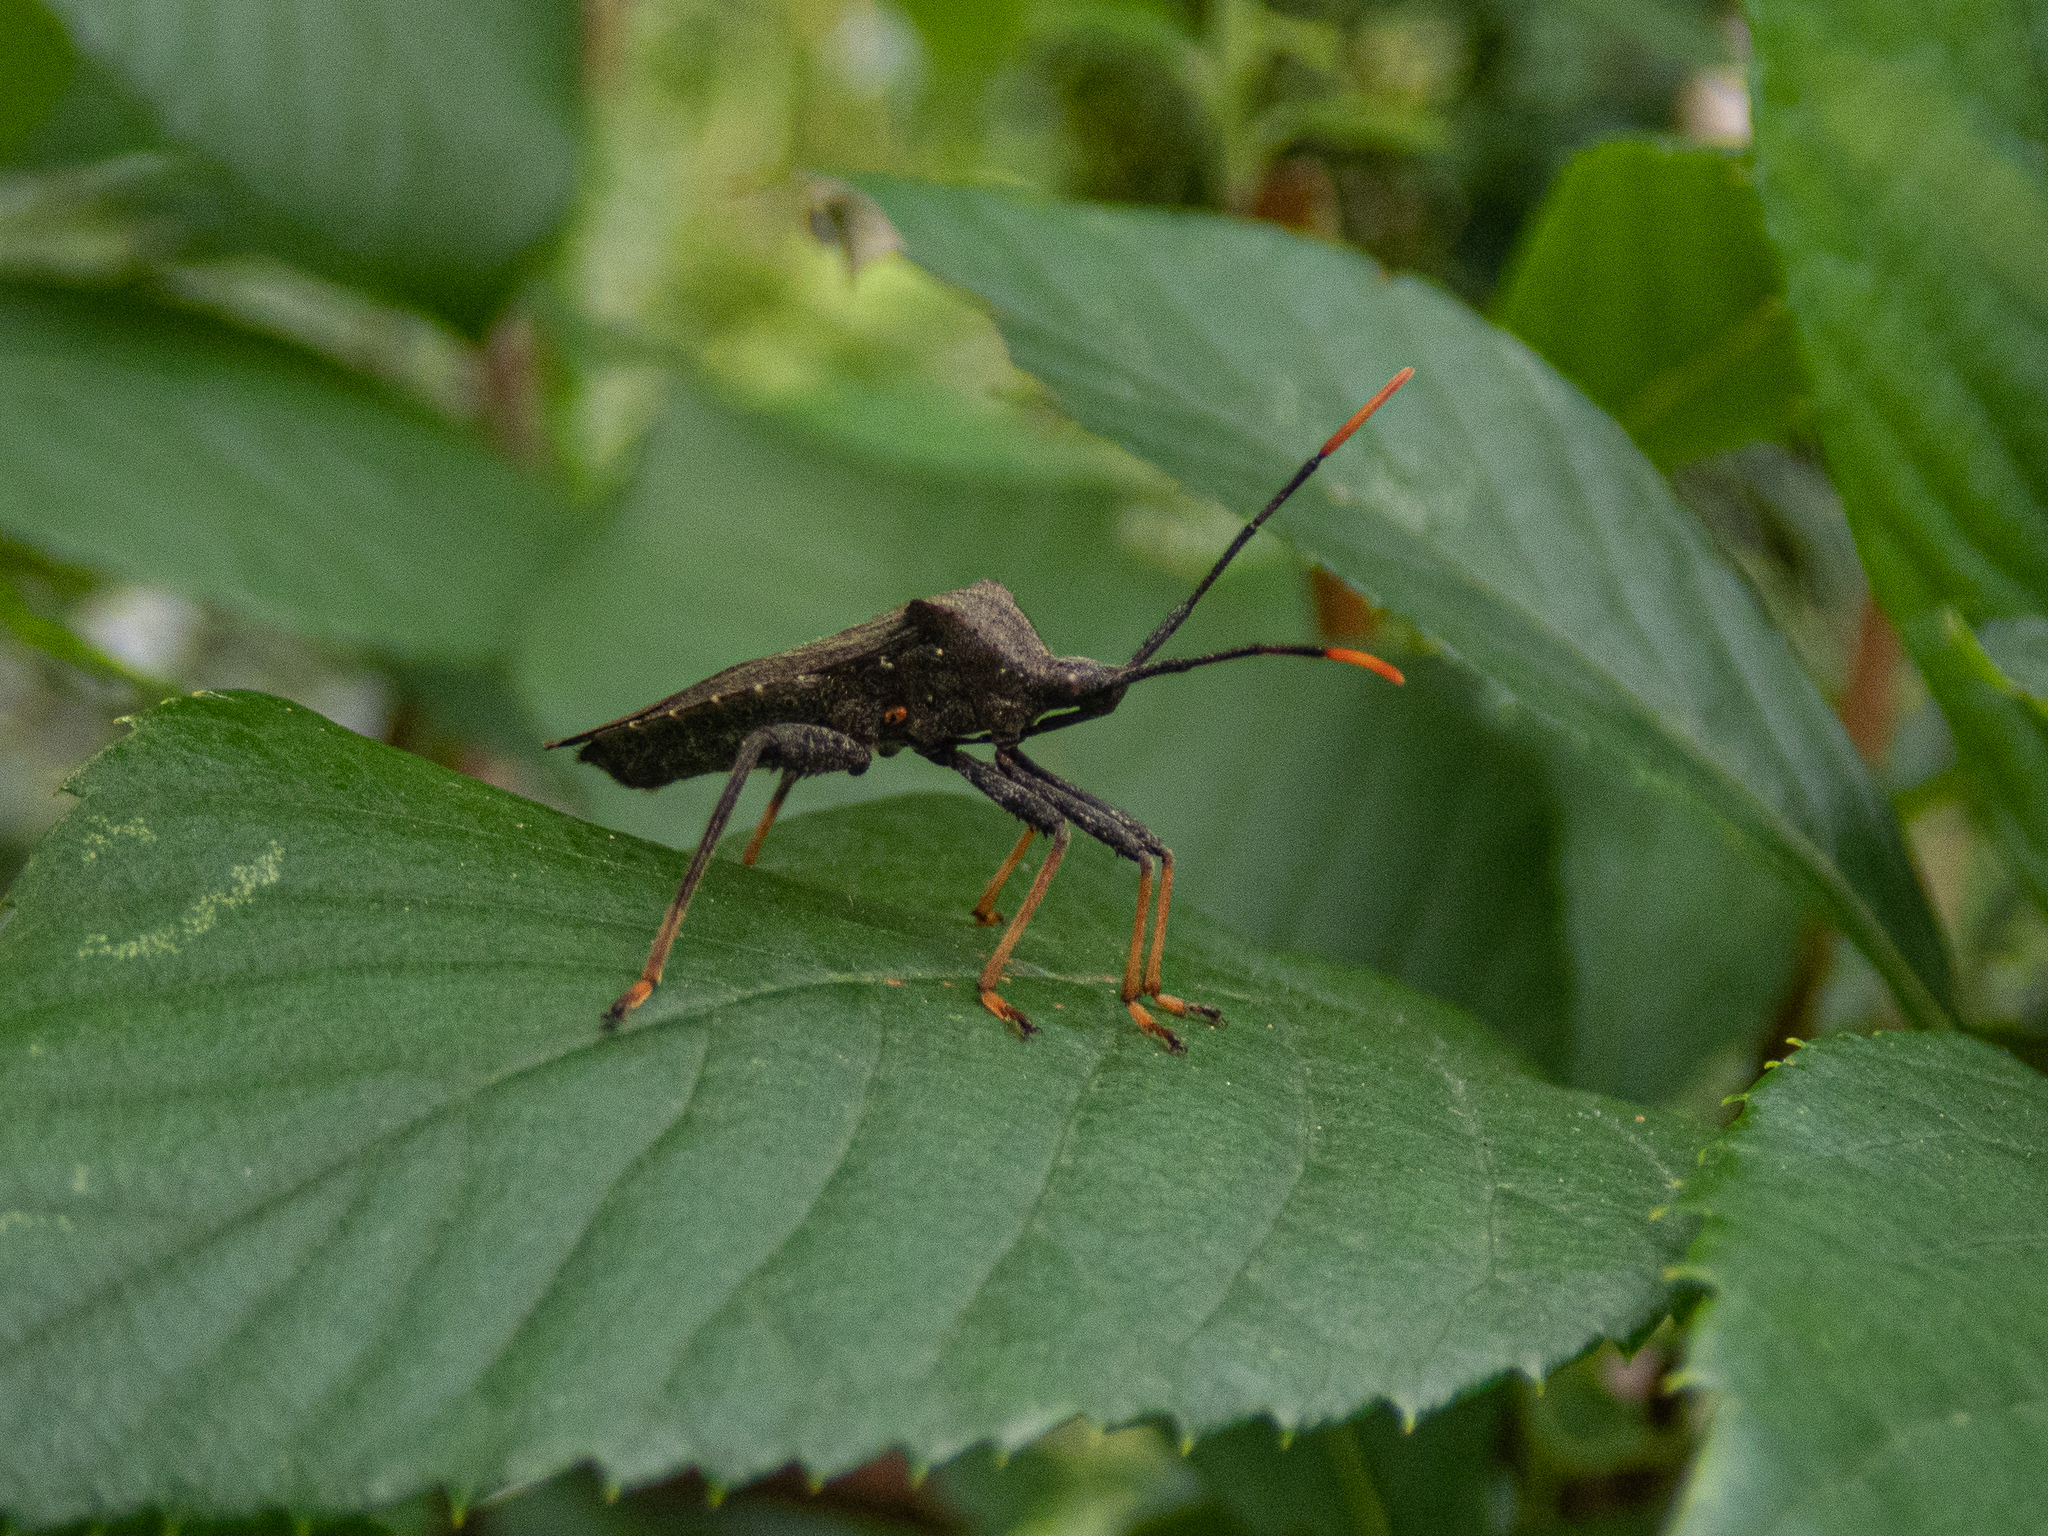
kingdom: Animalia
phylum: Arthropoda
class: Insecta
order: Hemiptera
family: Coreidae
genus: Acanthocephala
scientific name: Acanthocephala terminalis
